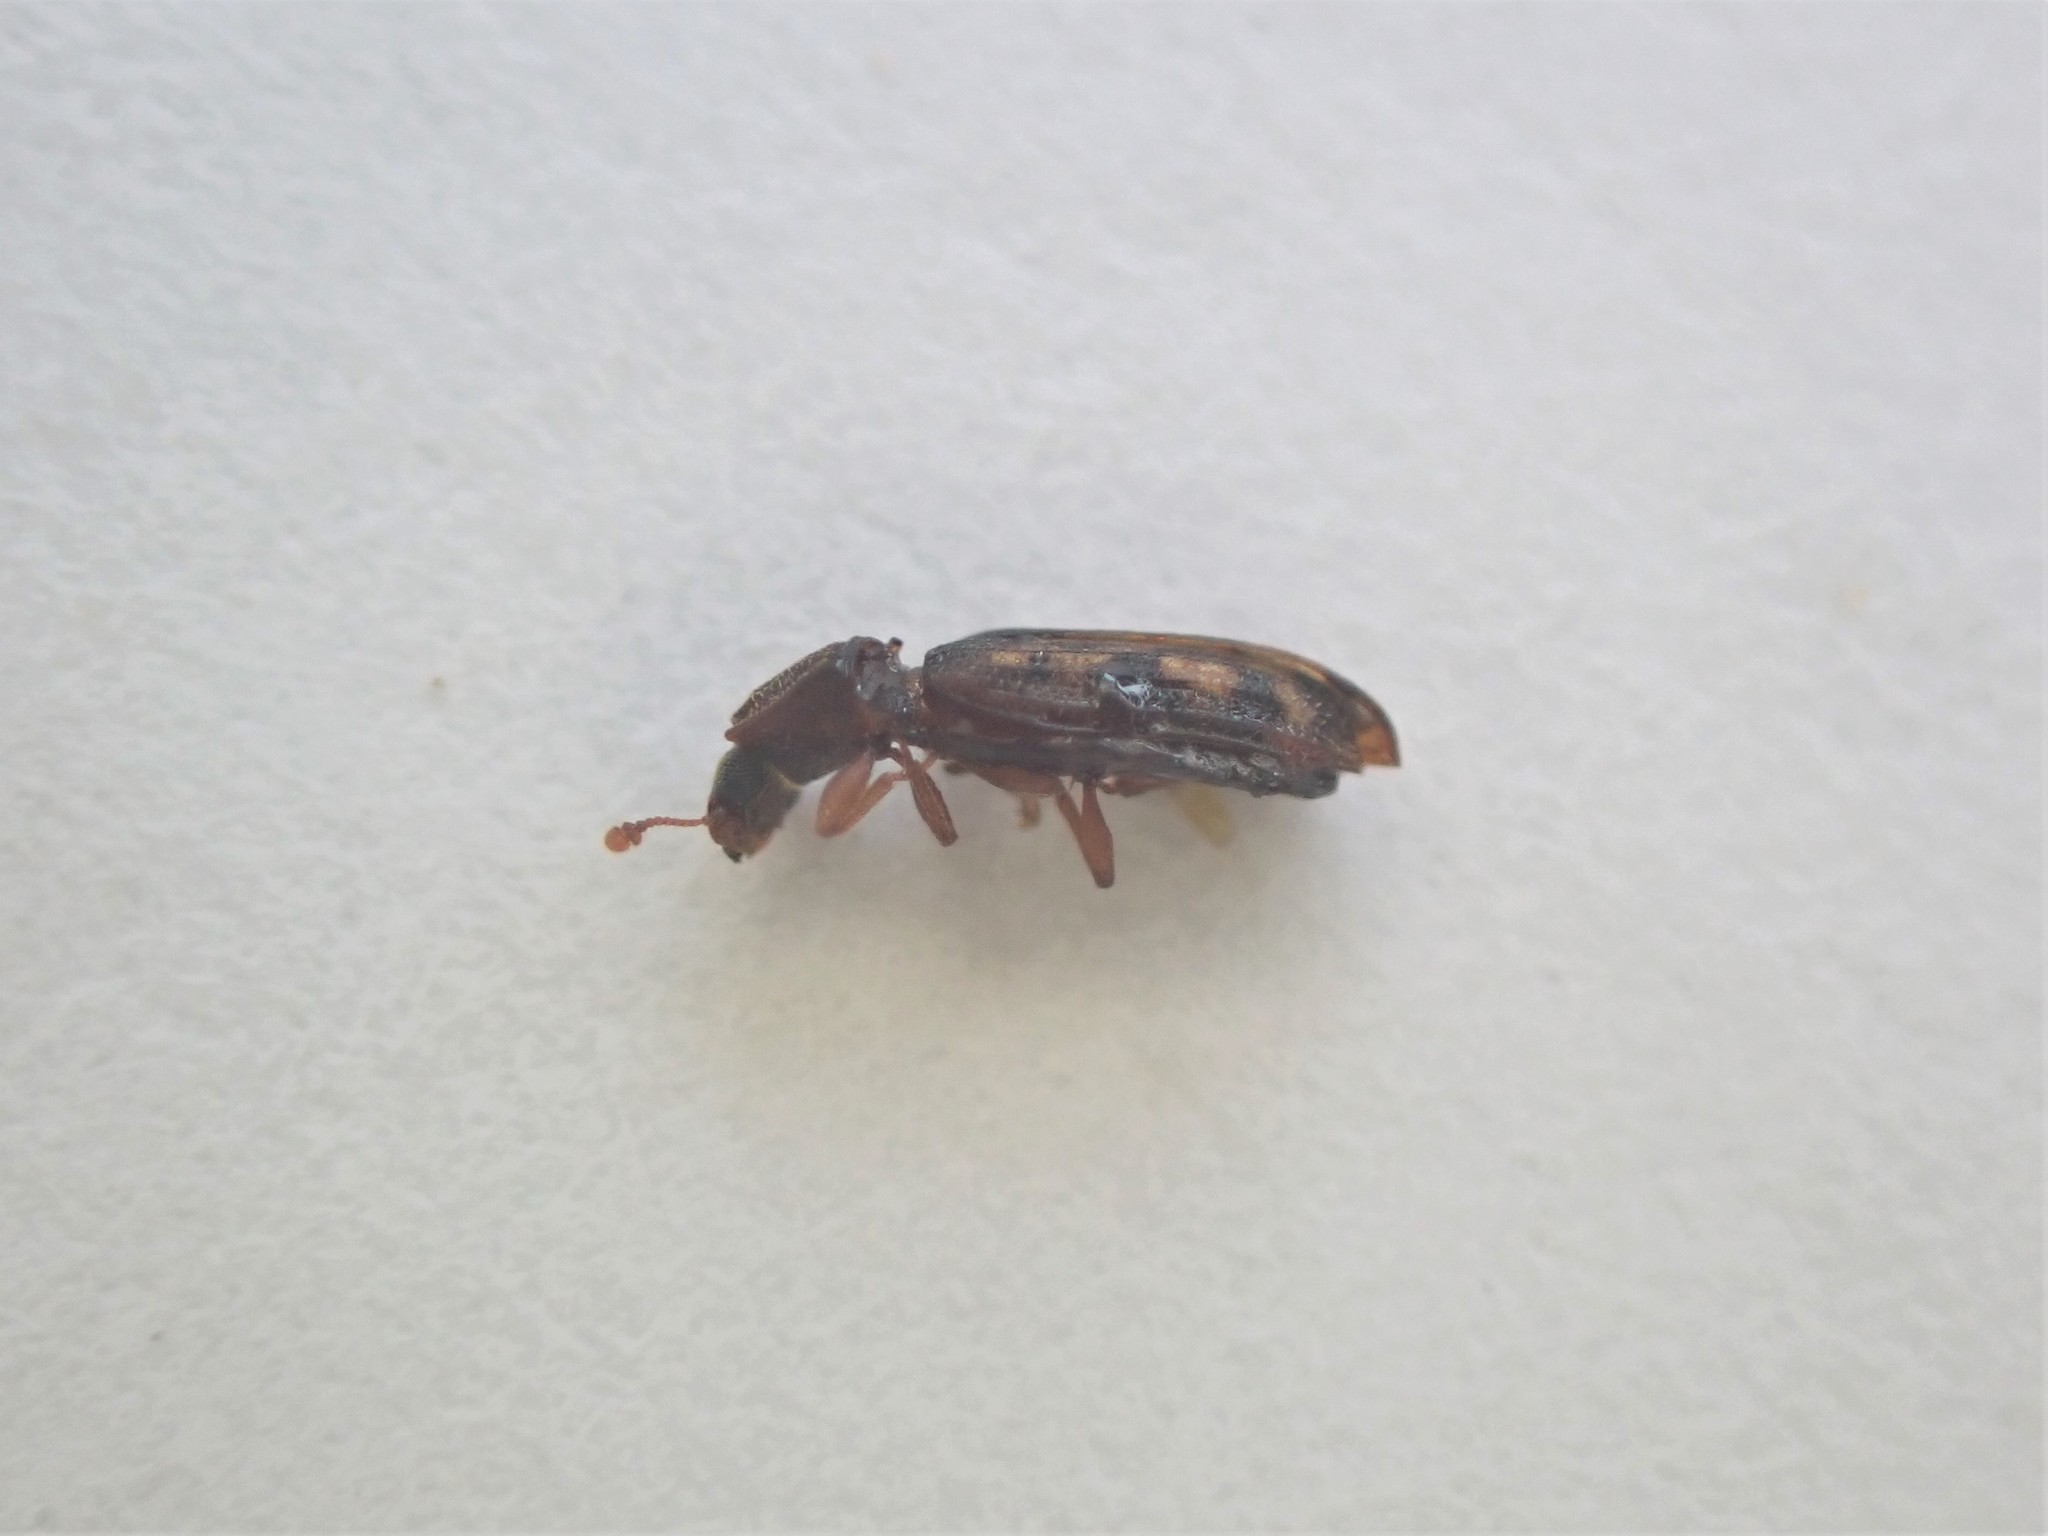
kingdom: Animalia
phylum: Arthropoda
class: Insecta
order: Coleoptera
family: Zopheridae
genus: Bitoma
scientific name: Bitoma insularis
